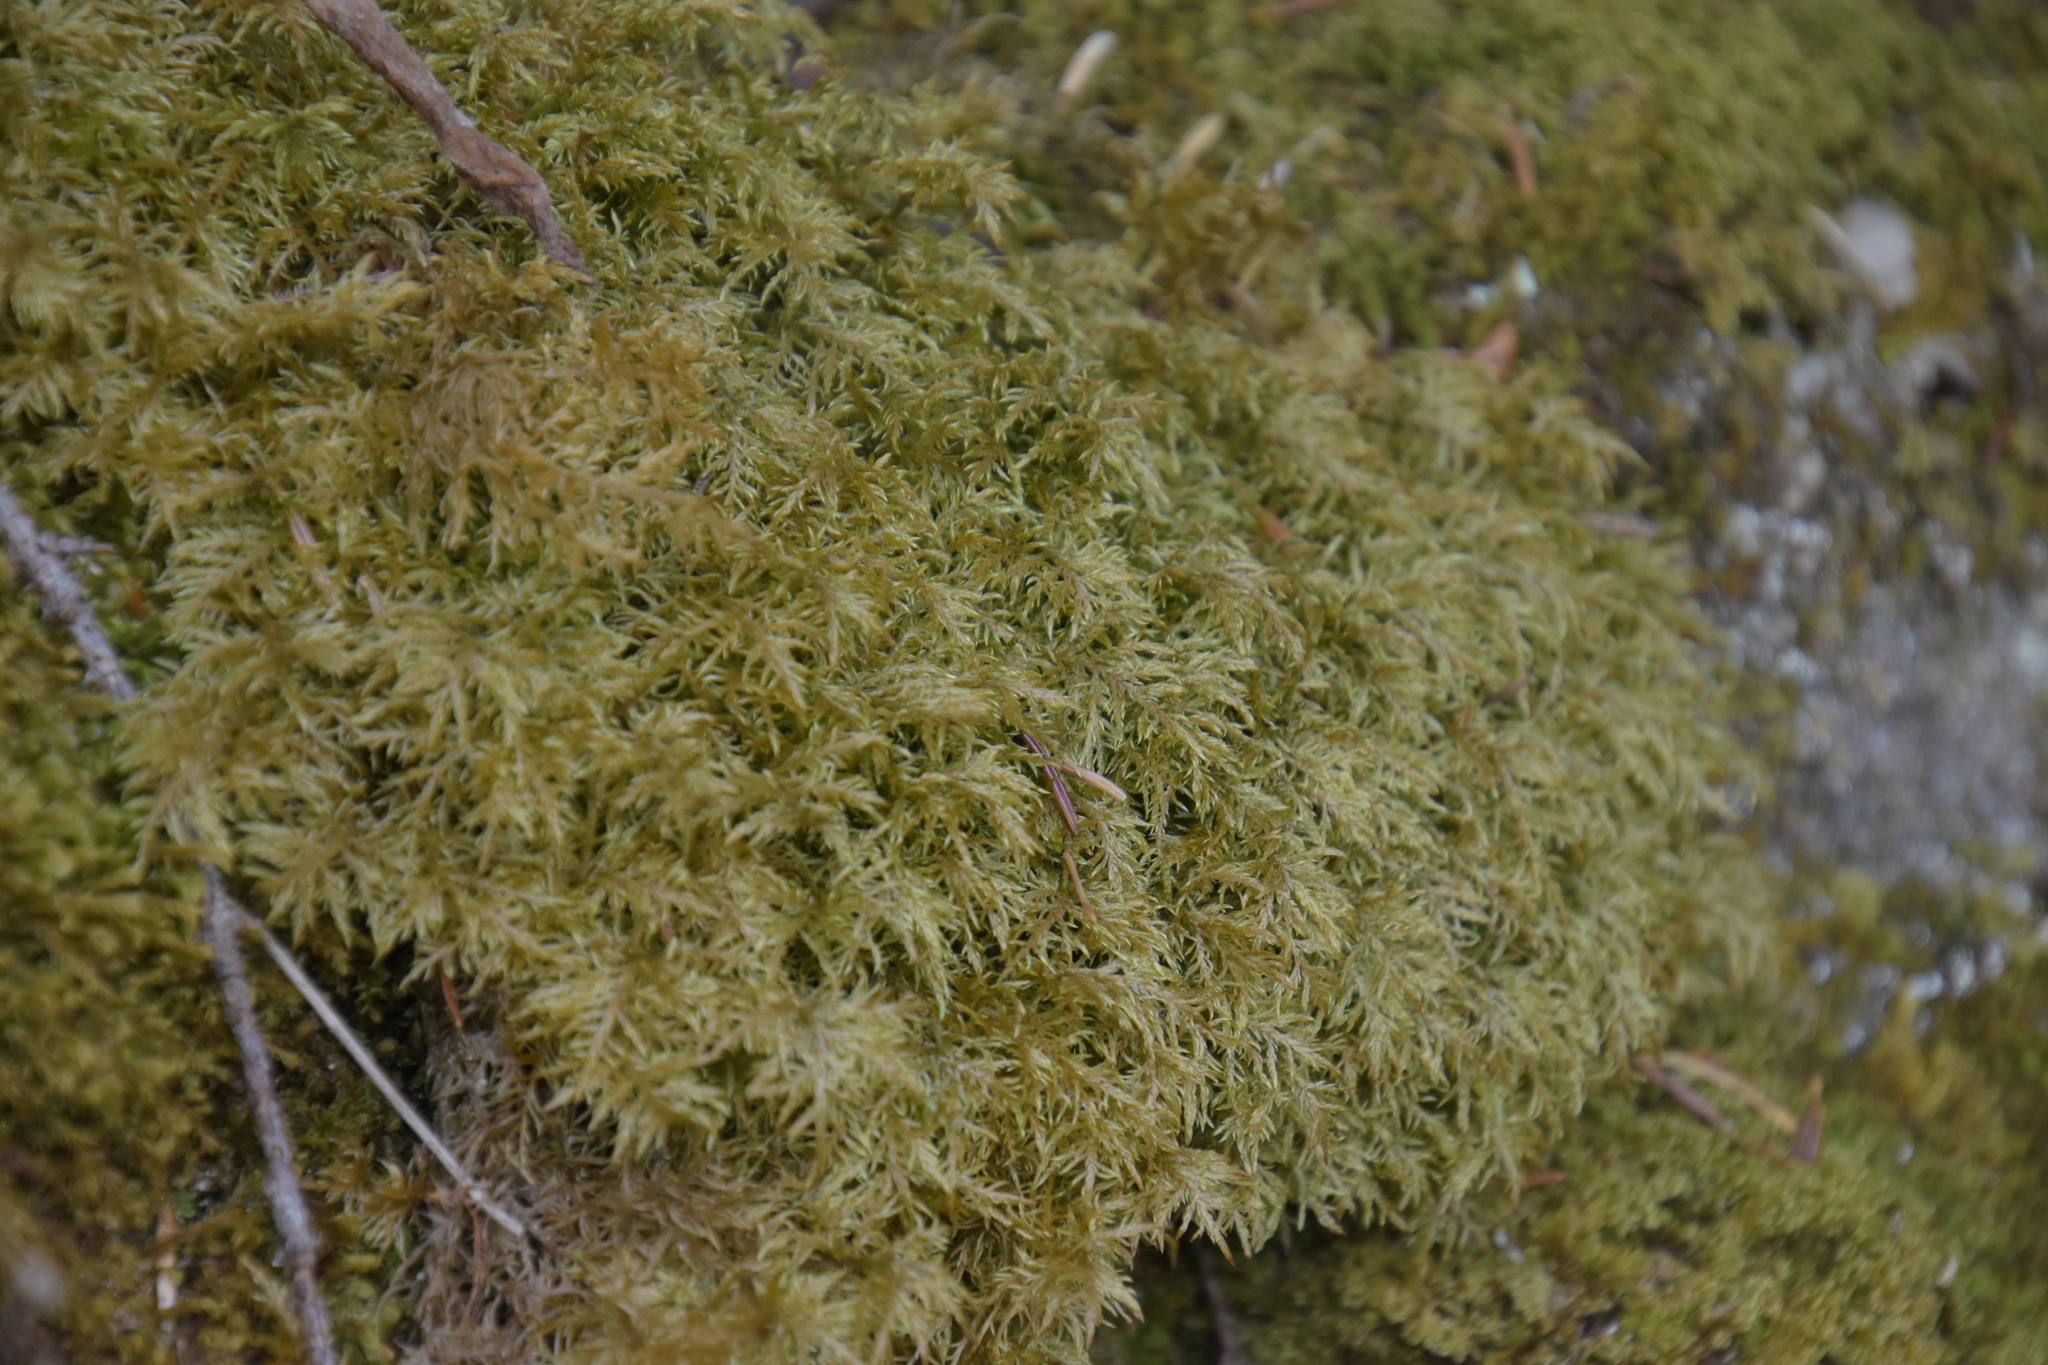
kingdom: Plantae
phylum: Bryophyta
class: Bryopsida
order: Hypnales
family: Hylocomiaceae
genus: Hylocomium
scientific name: Hylocomium splendens
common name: Stairstep moss
